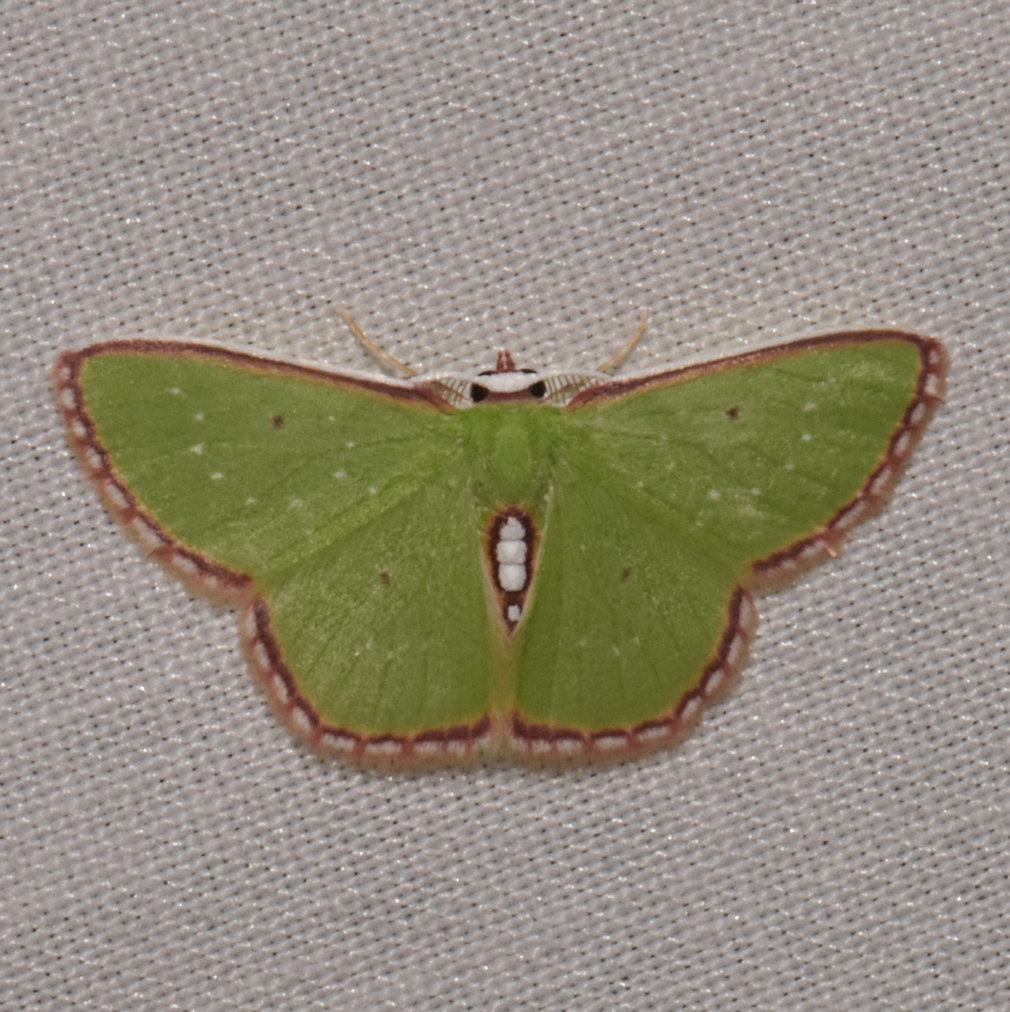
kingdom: Animalia
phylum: Arthropoda
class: Insecta
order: Lepidoptera
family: Geometridae
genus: Synchlora
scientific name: Synchlora herbaria
